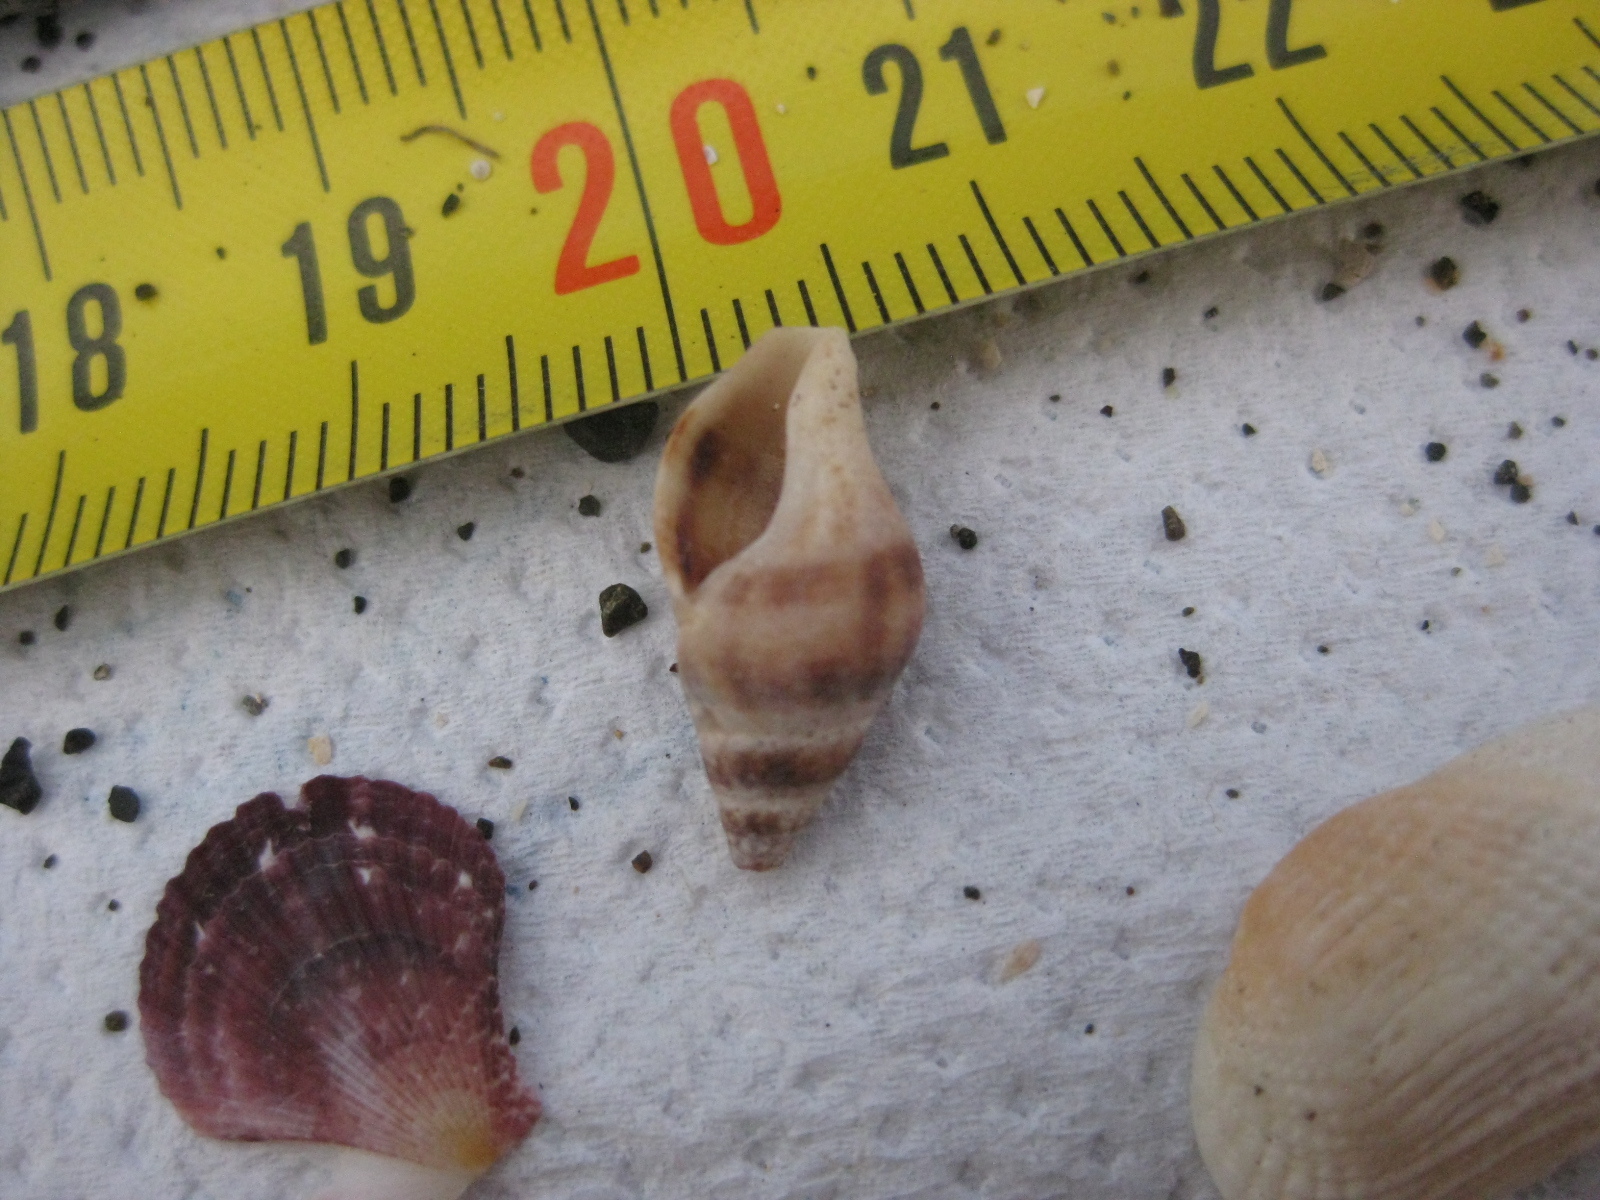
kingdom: Animalia
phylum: Mollusca
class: Gastropoda
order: Neogastropoda
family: Tudiclidae
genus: Buccinulum
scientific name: Buccinulum vittatum
